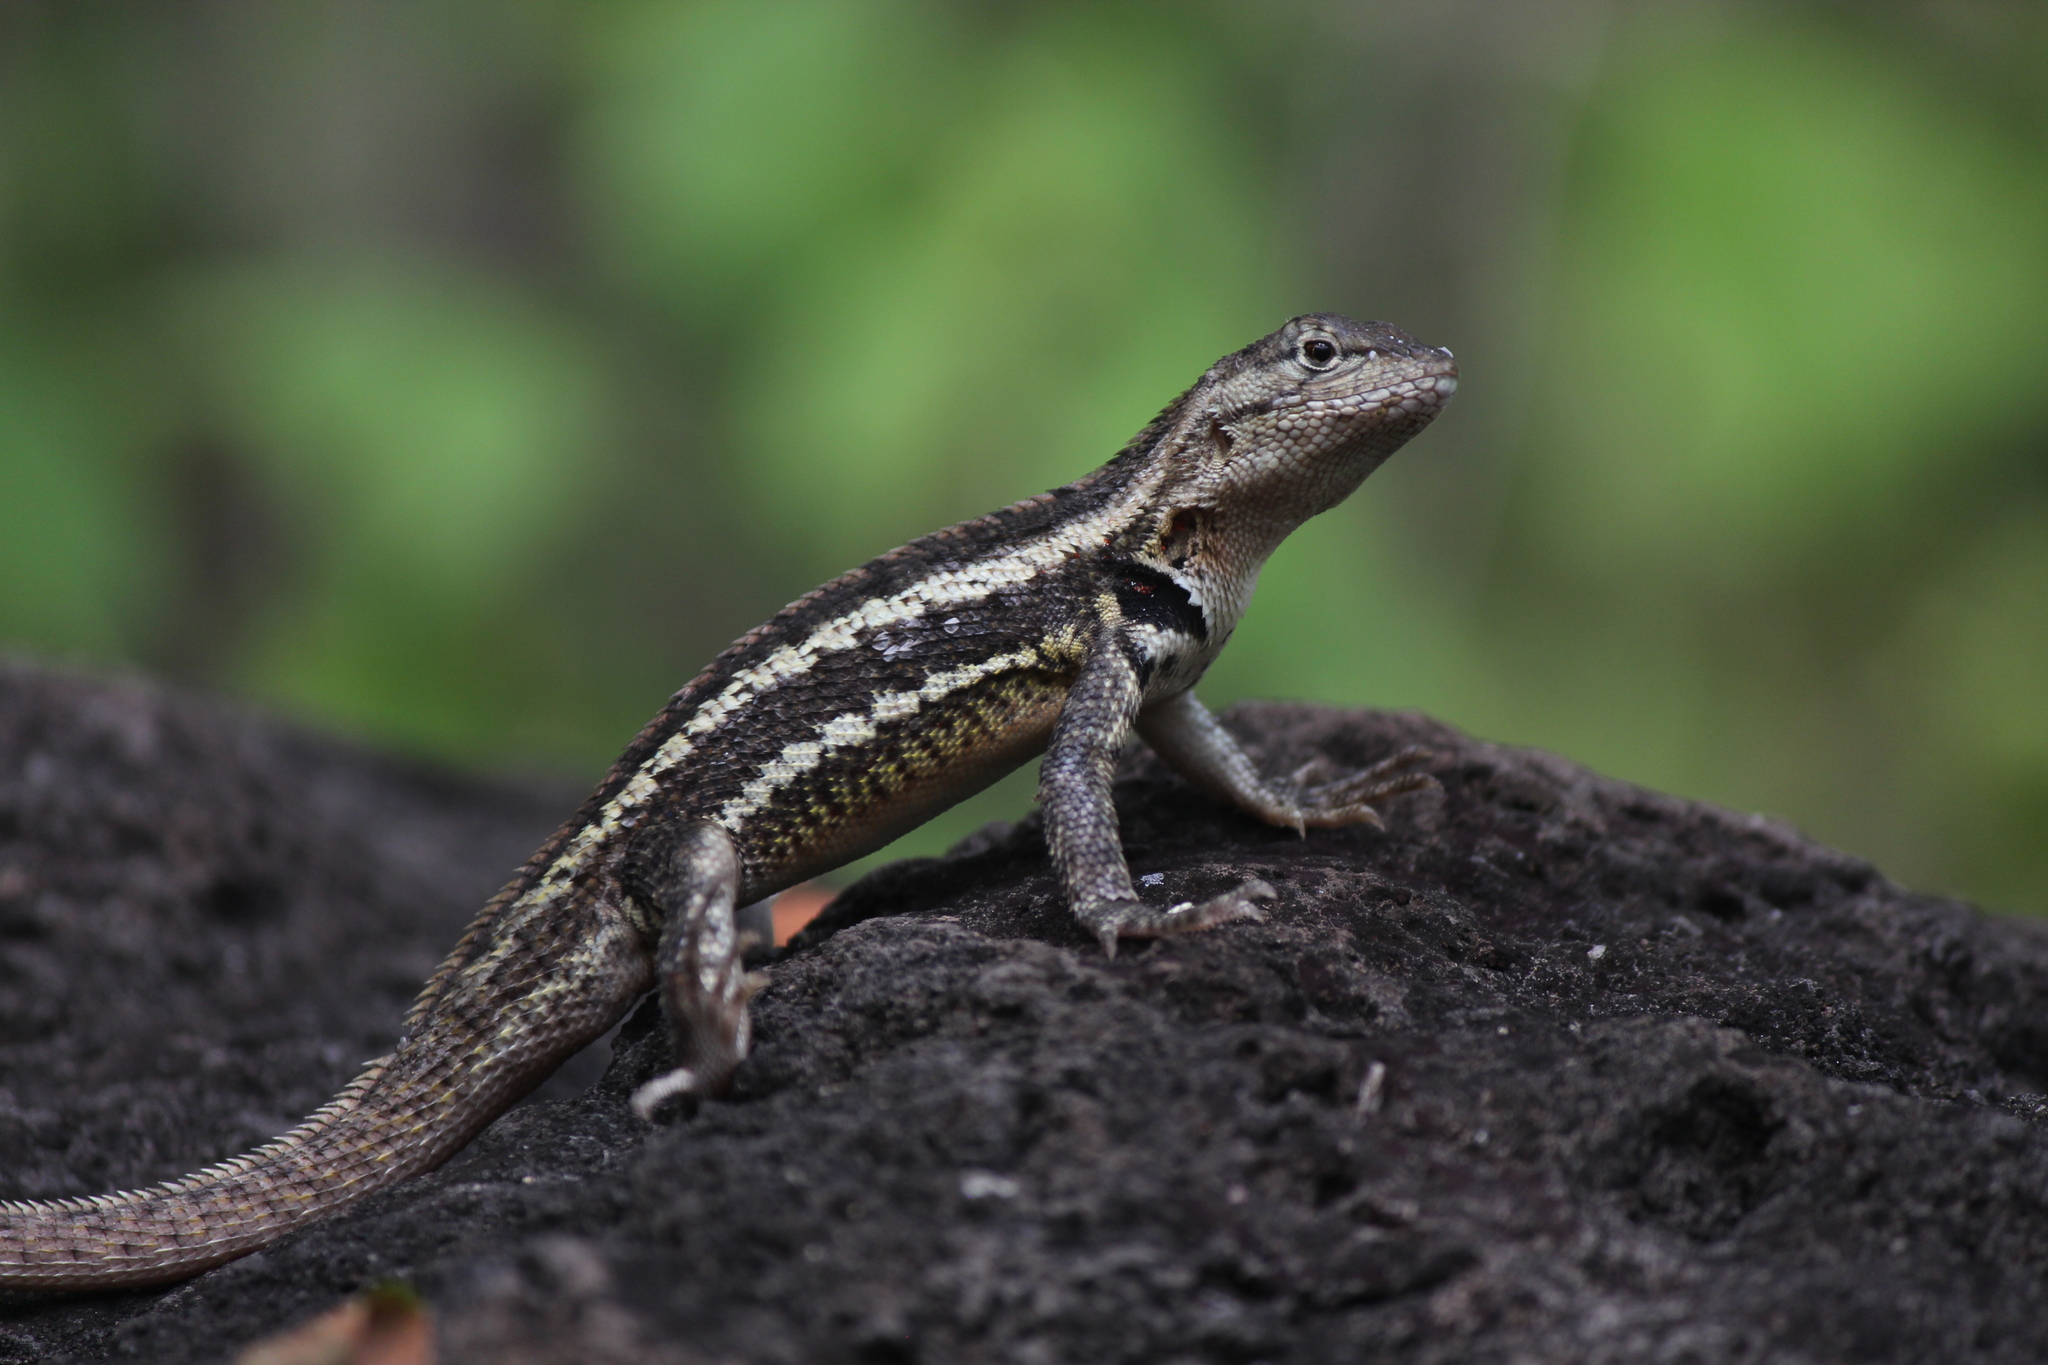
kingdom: Animalia
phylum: Chordata
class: Squamata
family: Tropiduridae
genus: Microlophus
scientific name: Microlophus bivittatus
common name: San cristobal lava lizard
